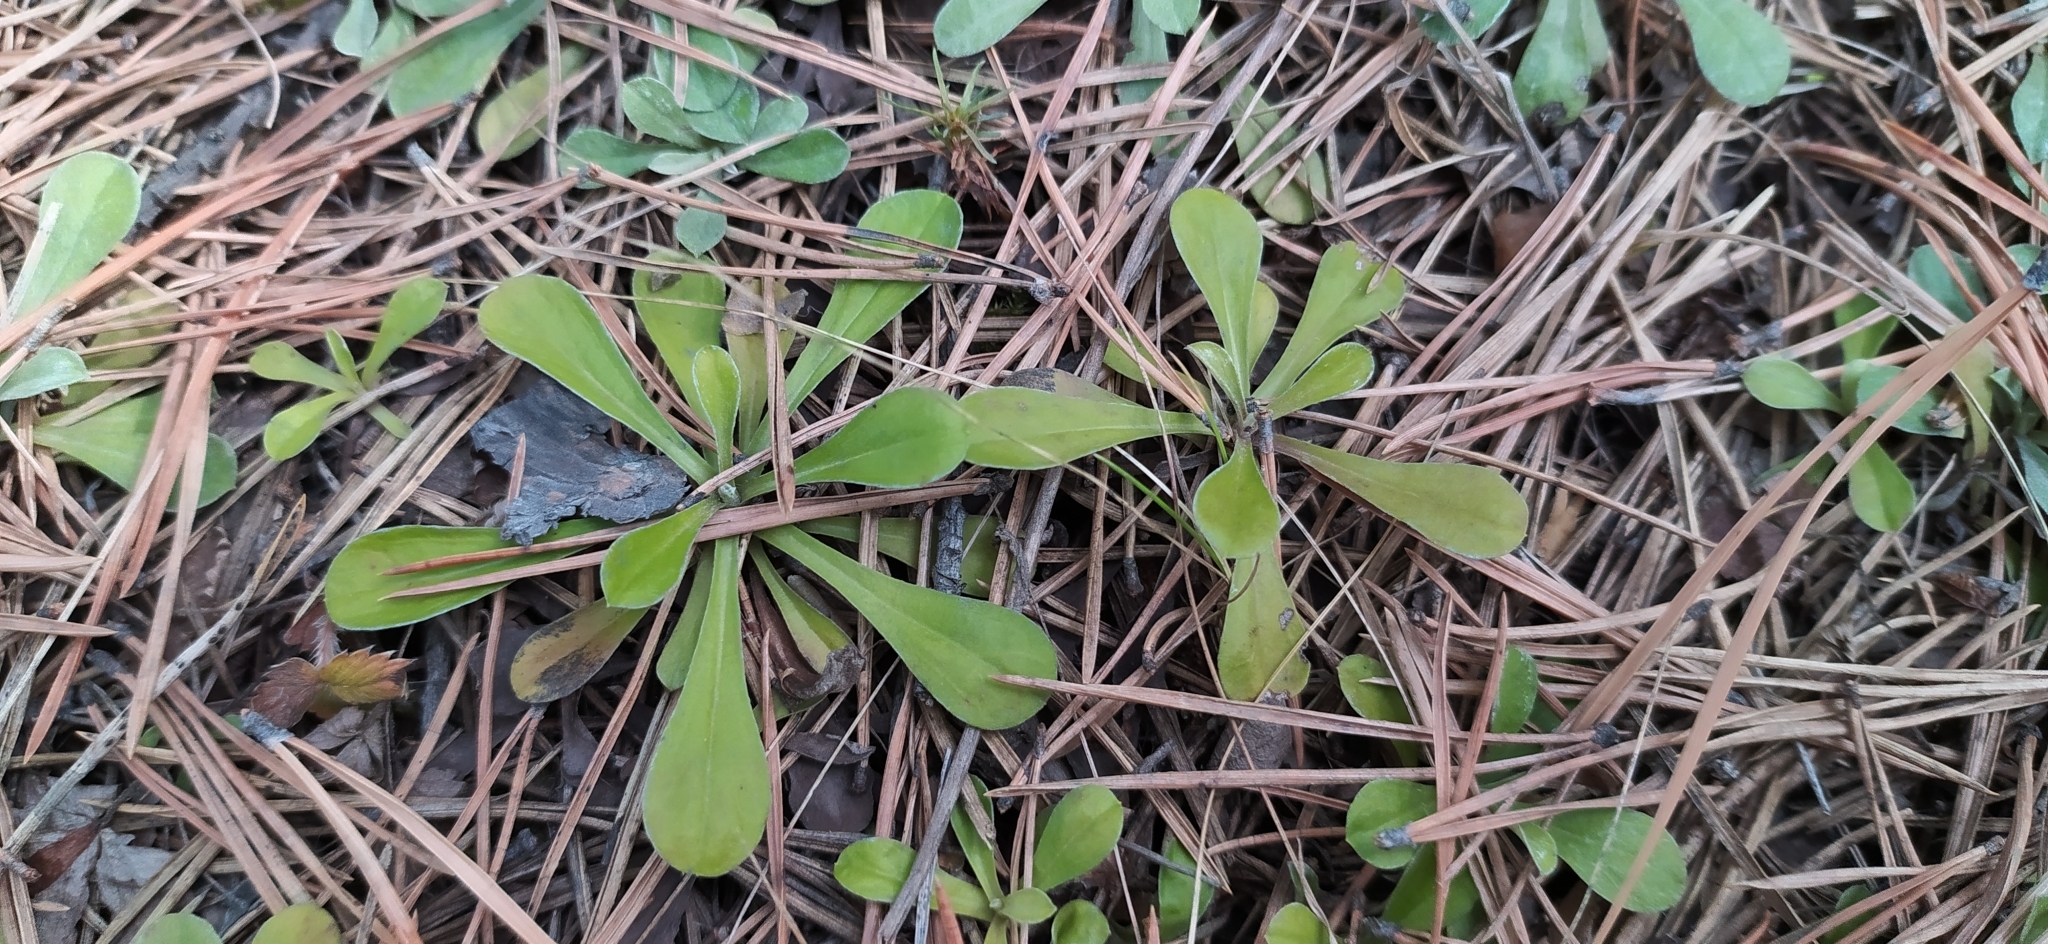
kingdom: Plantae
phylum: Tracheophyta
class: Magnoliopsida
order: Asterales
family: Asteraceae
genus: Antennaria
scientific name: Antennaria dioica
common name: Mountain everlasting
